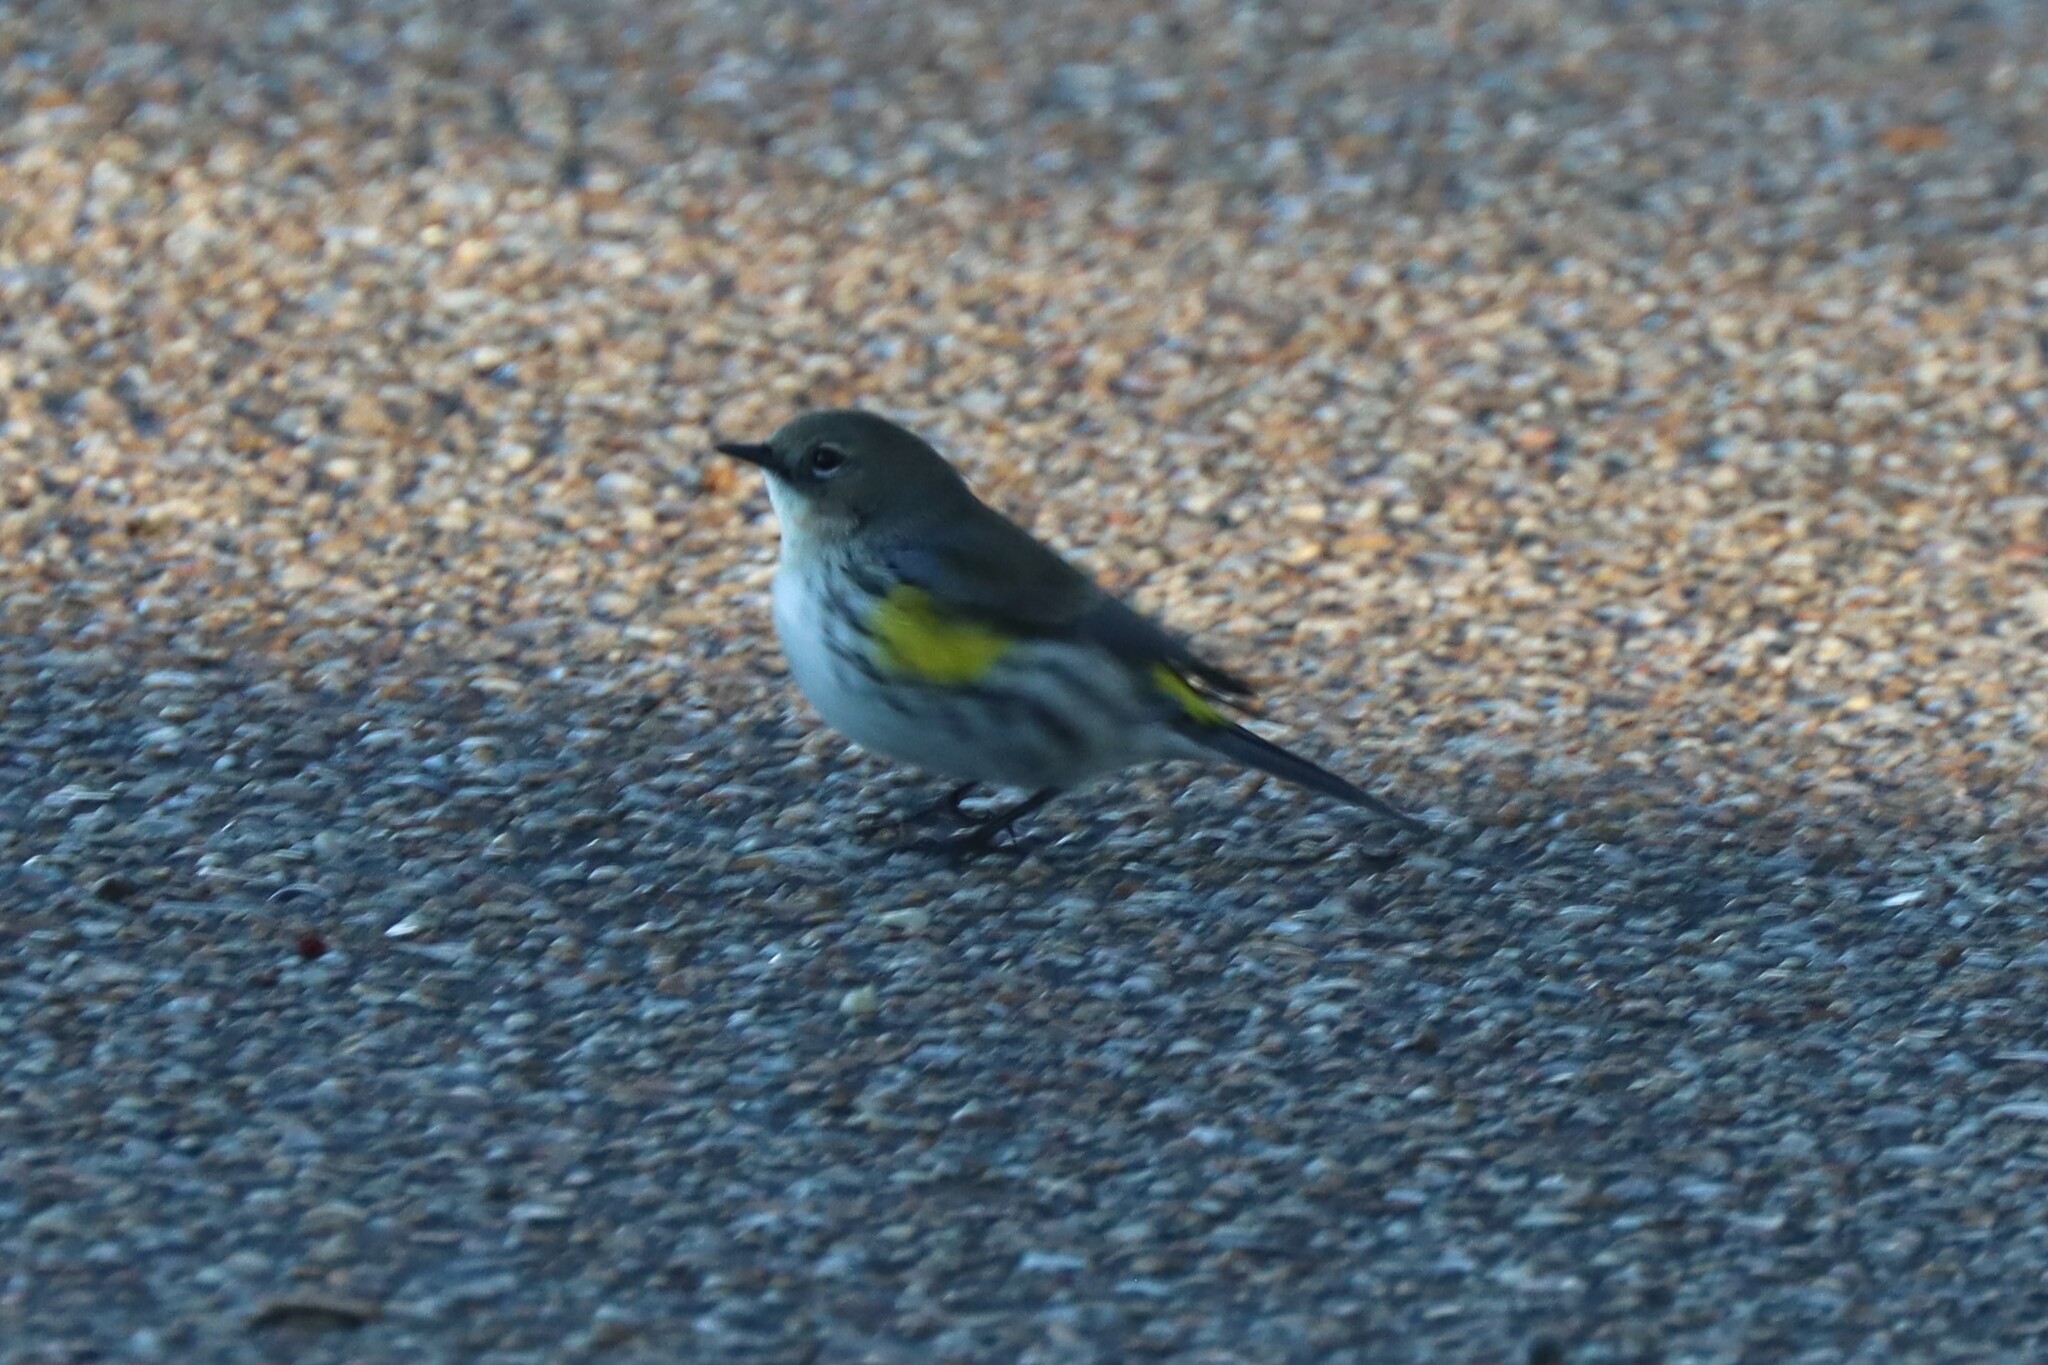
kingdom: Animalia
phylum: Chordata
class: Aves
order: Passeriformes
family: Parulidae
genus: Setophaga
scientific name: Setophaga coronata
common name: Myrtle warbler
